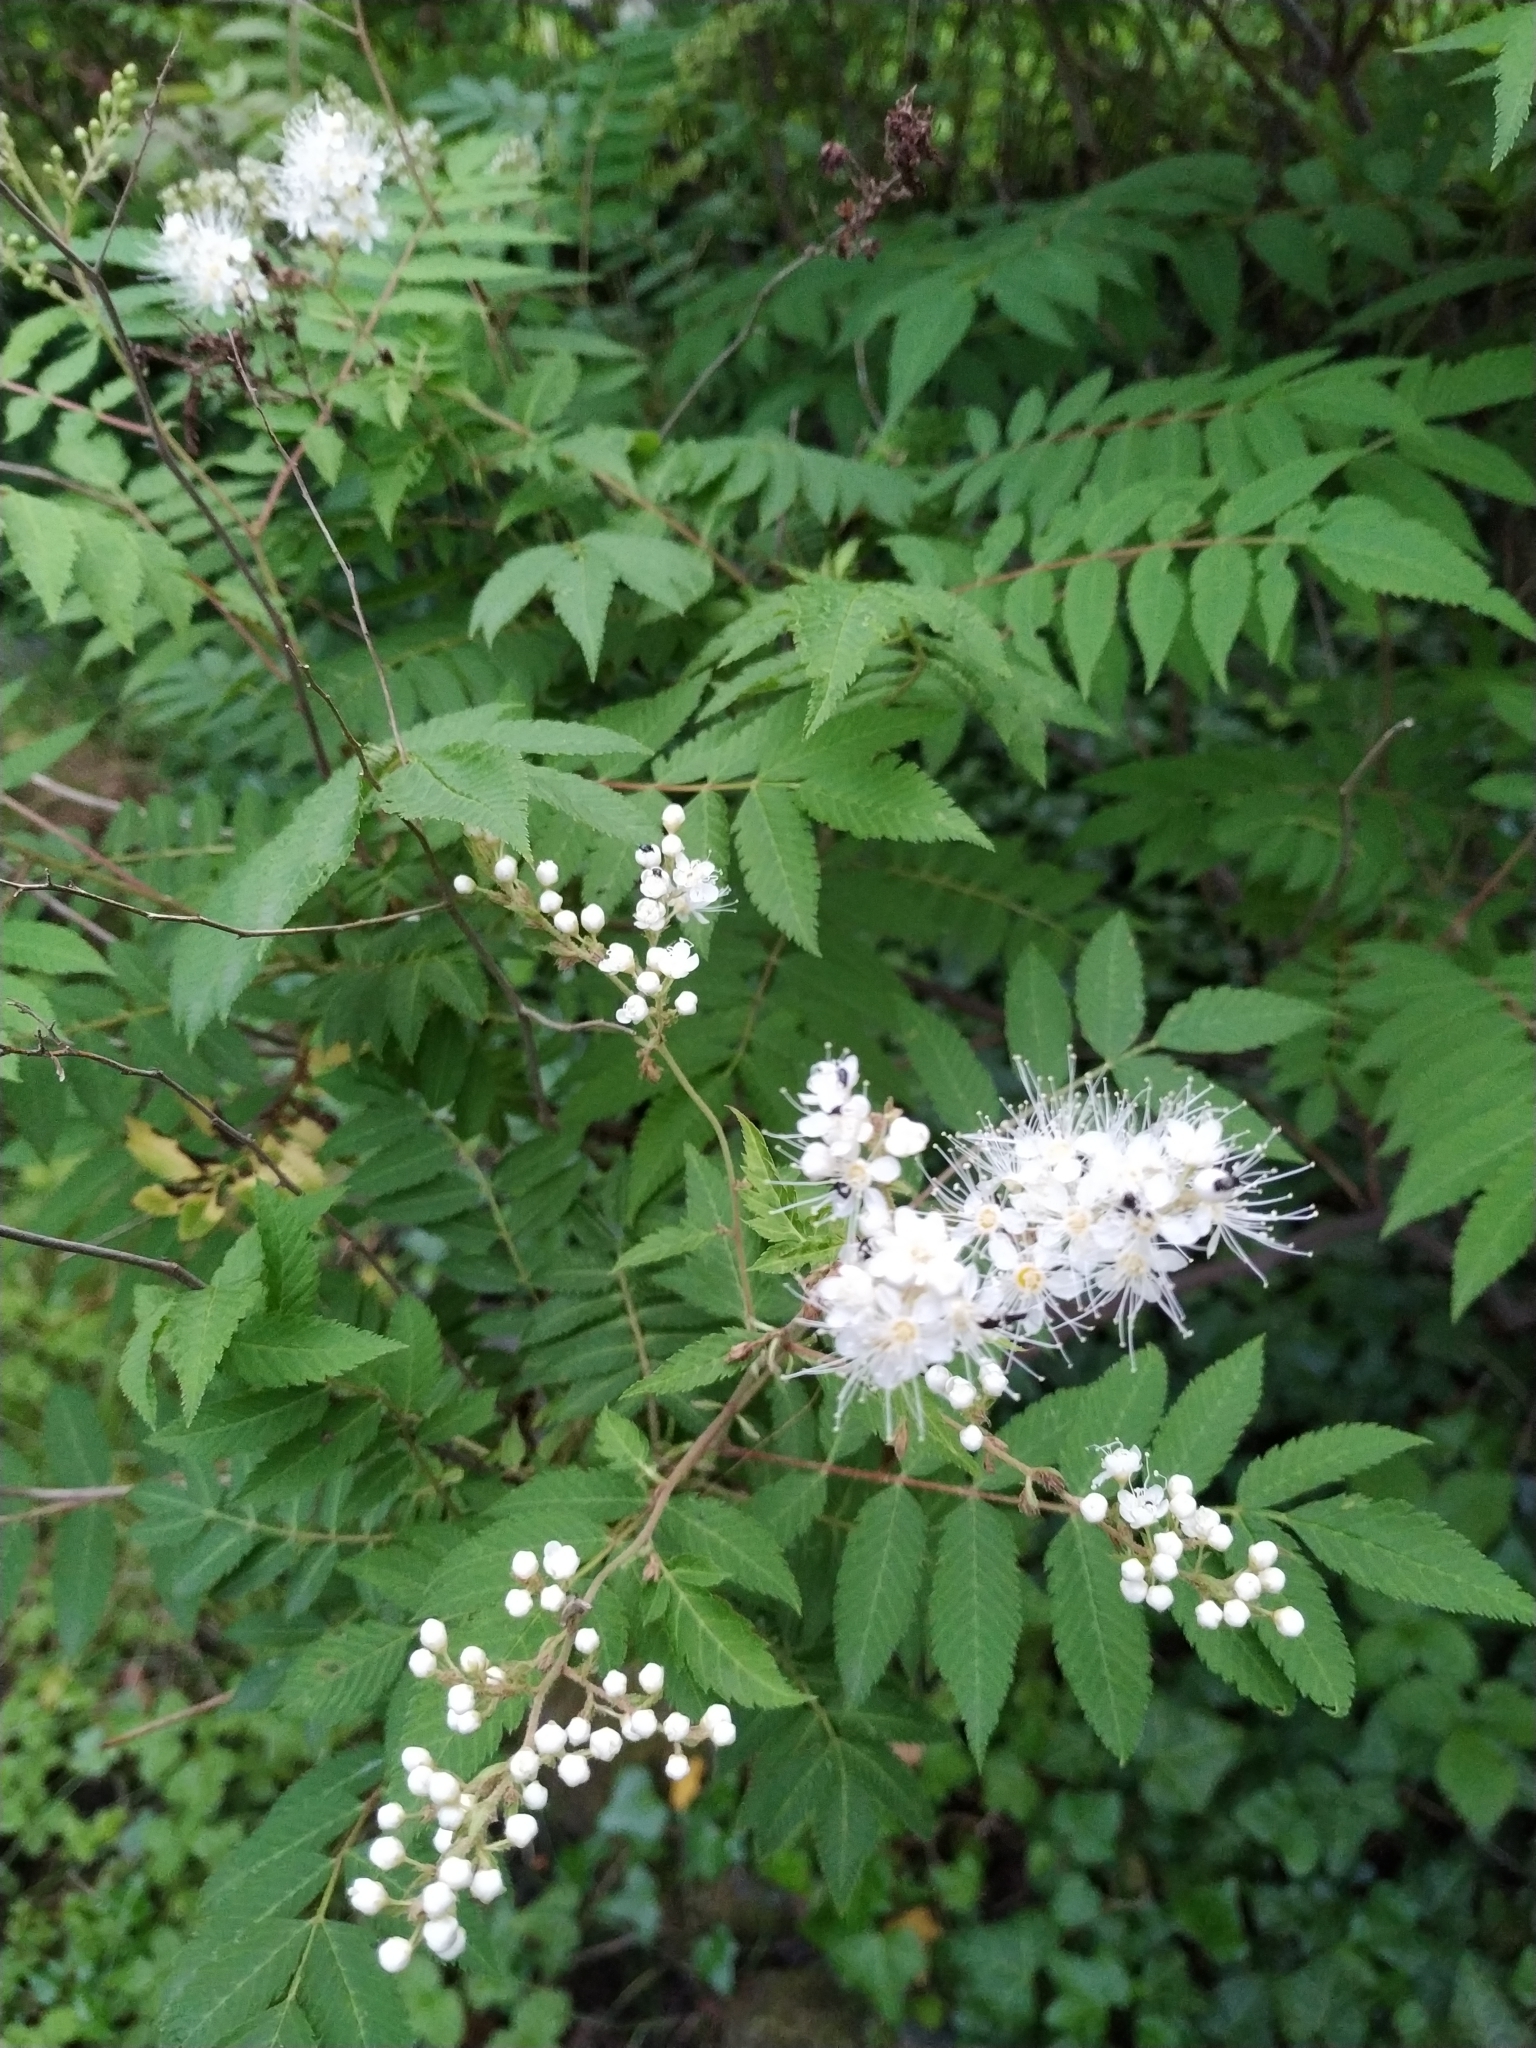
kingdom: Plantae
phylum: Tracheophyta
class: Magnoliopsida
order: Rosales
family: Rosaceae
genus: Sorbaria
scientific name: Sorbaria sorbifolia
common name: False spiraea
